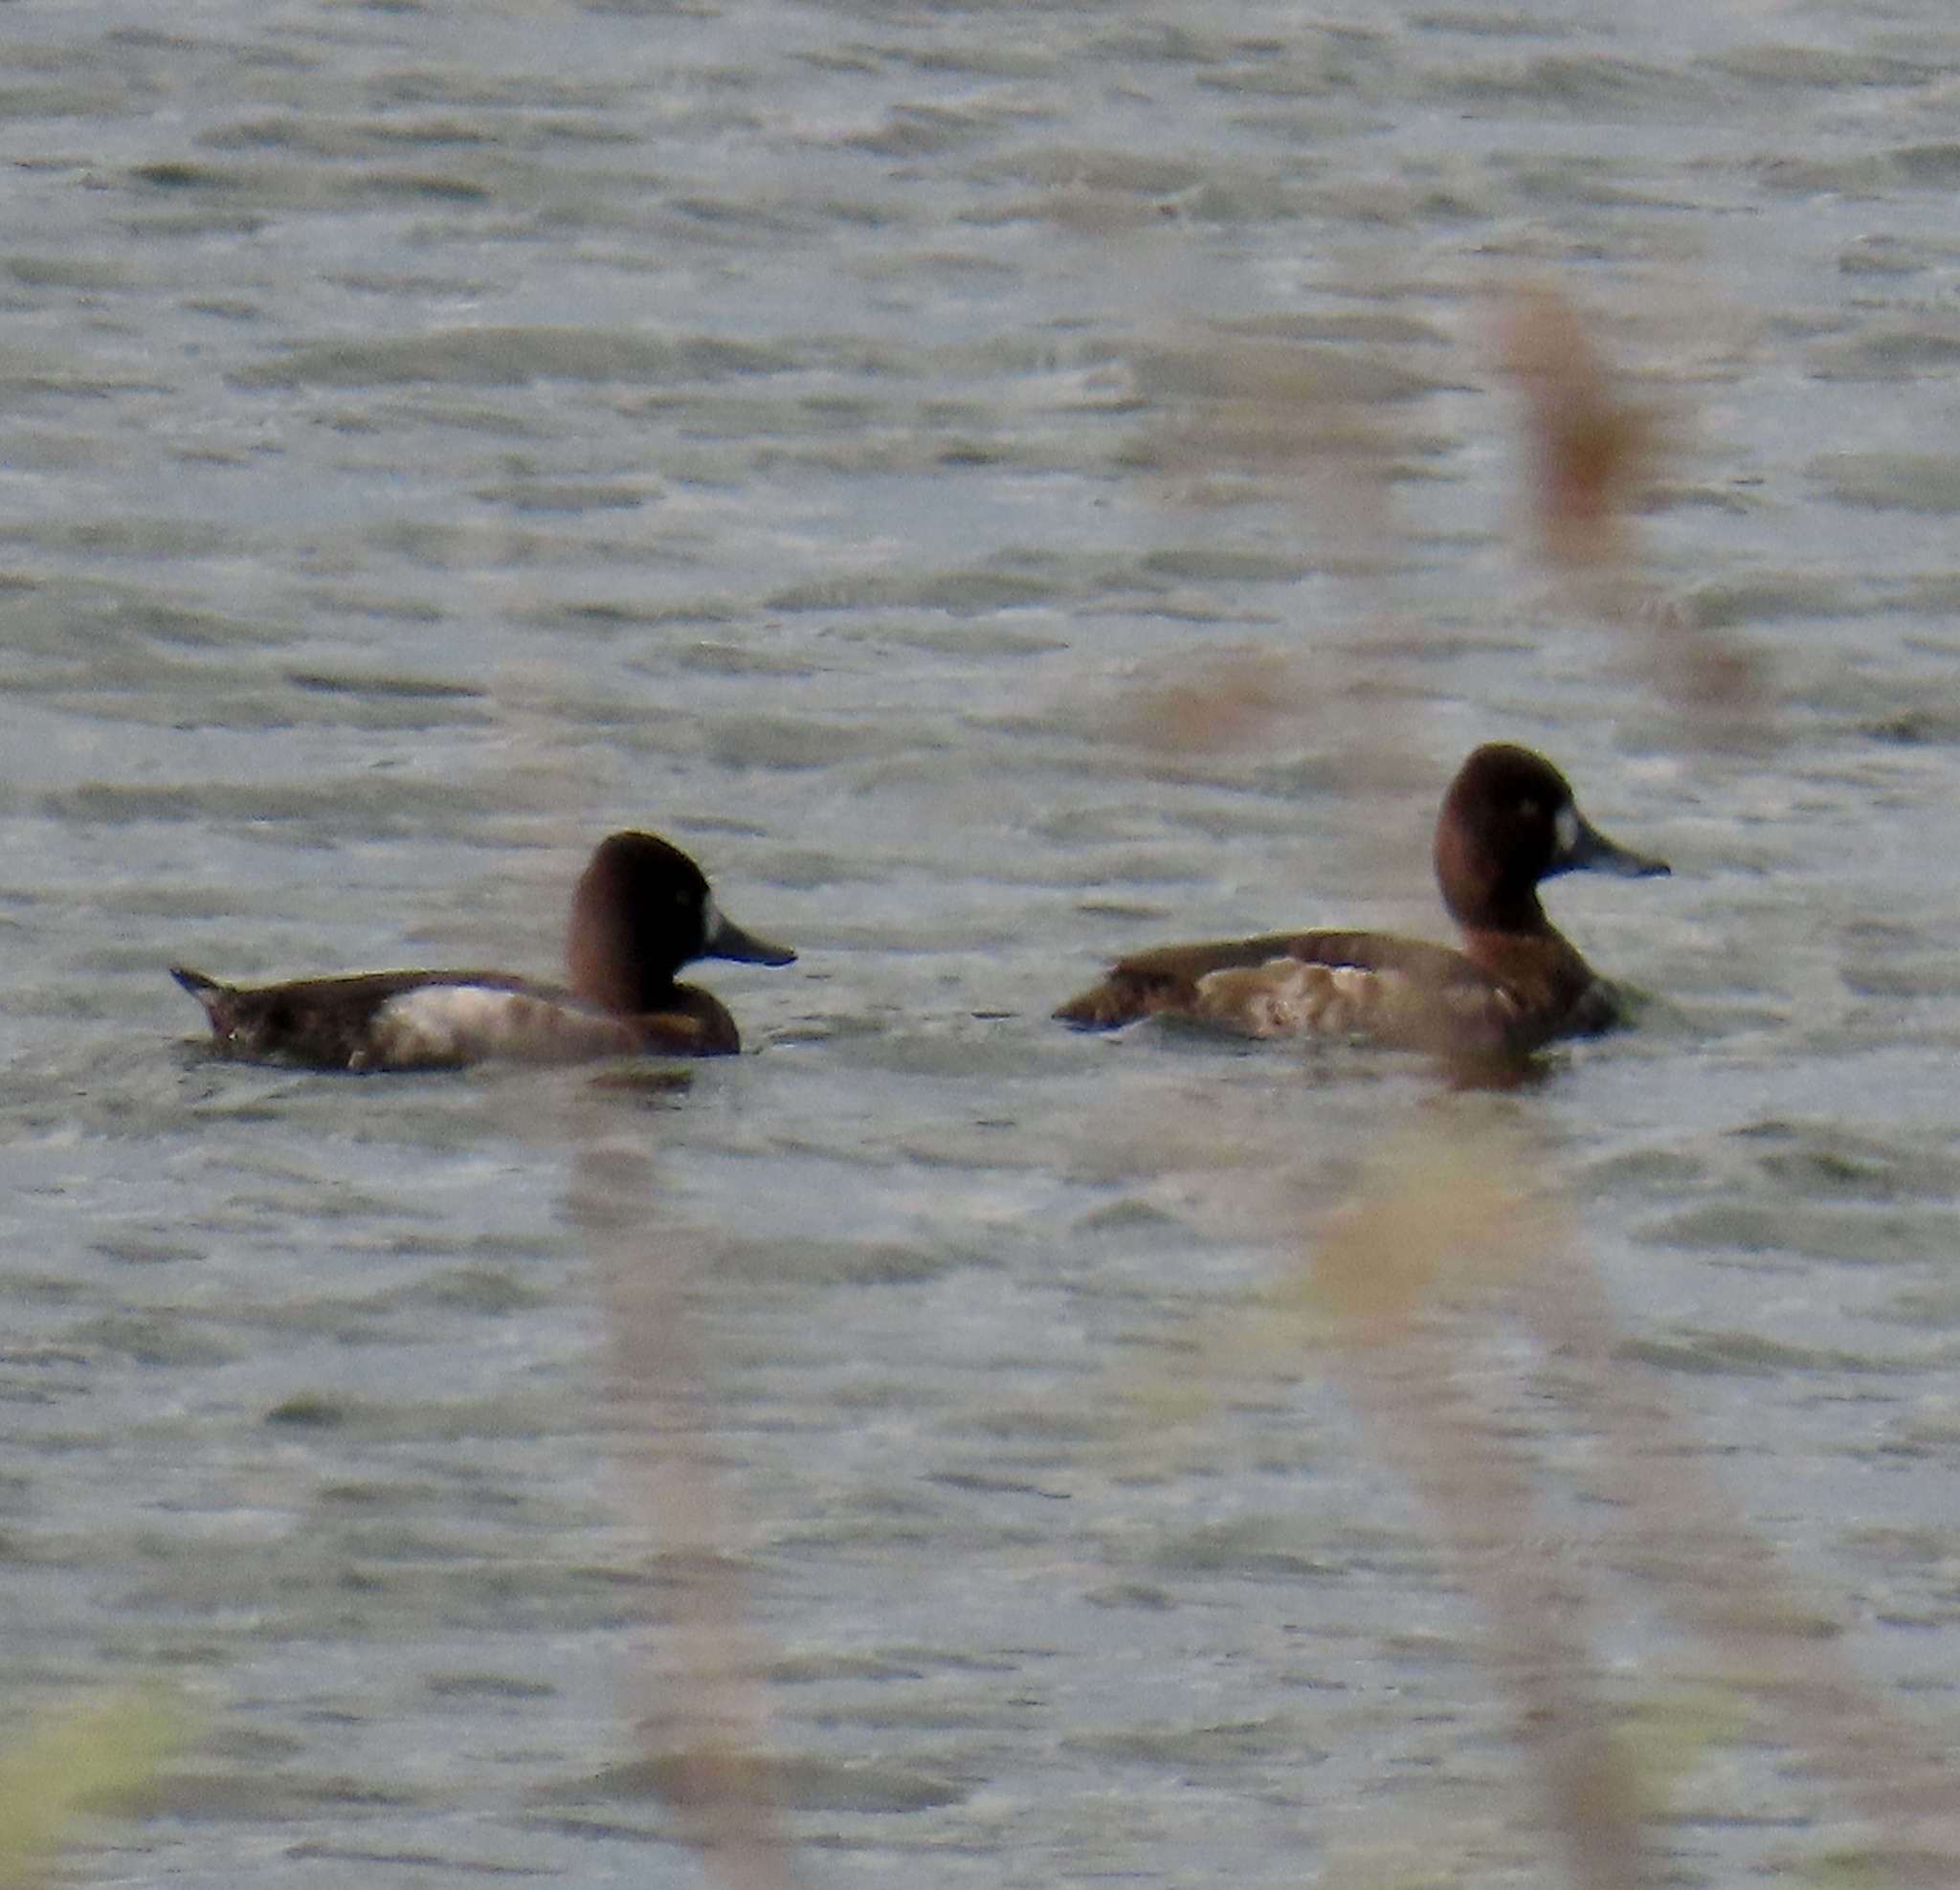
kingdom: Animalia
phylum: Chordata
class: Aves
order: Anseriformes
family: Anatidae
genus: Aythya
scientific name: Aythya affinis
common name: Lesser scaup
